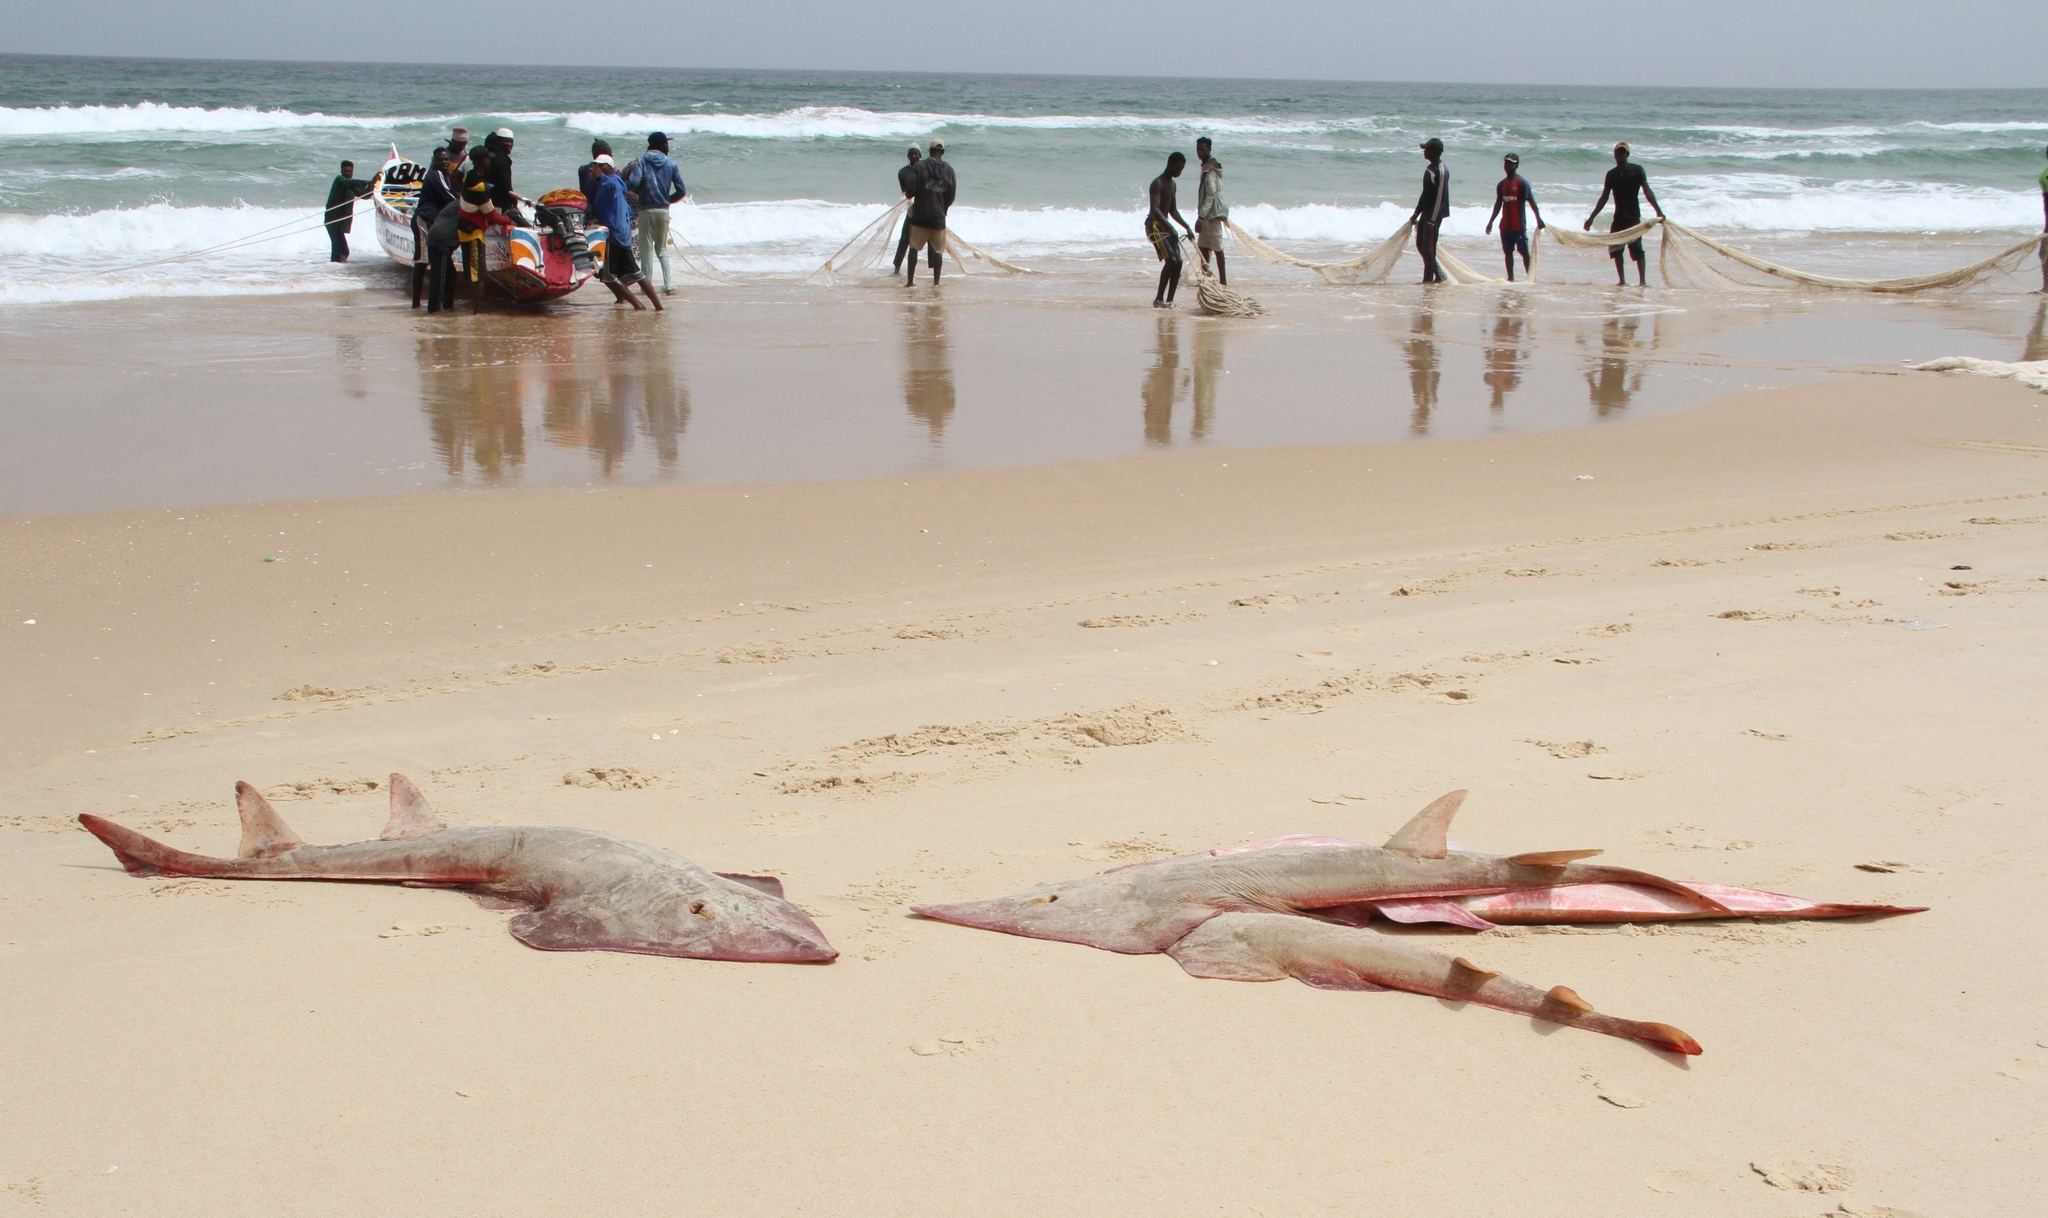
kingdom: Animalia
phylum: Chordata
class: Elasmobranchii
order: Rhinopristiformes
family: Glaucostegidae
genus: Glaucostegus
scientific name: Glaucostegus cemiculus
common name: Blackchin guitarfish
